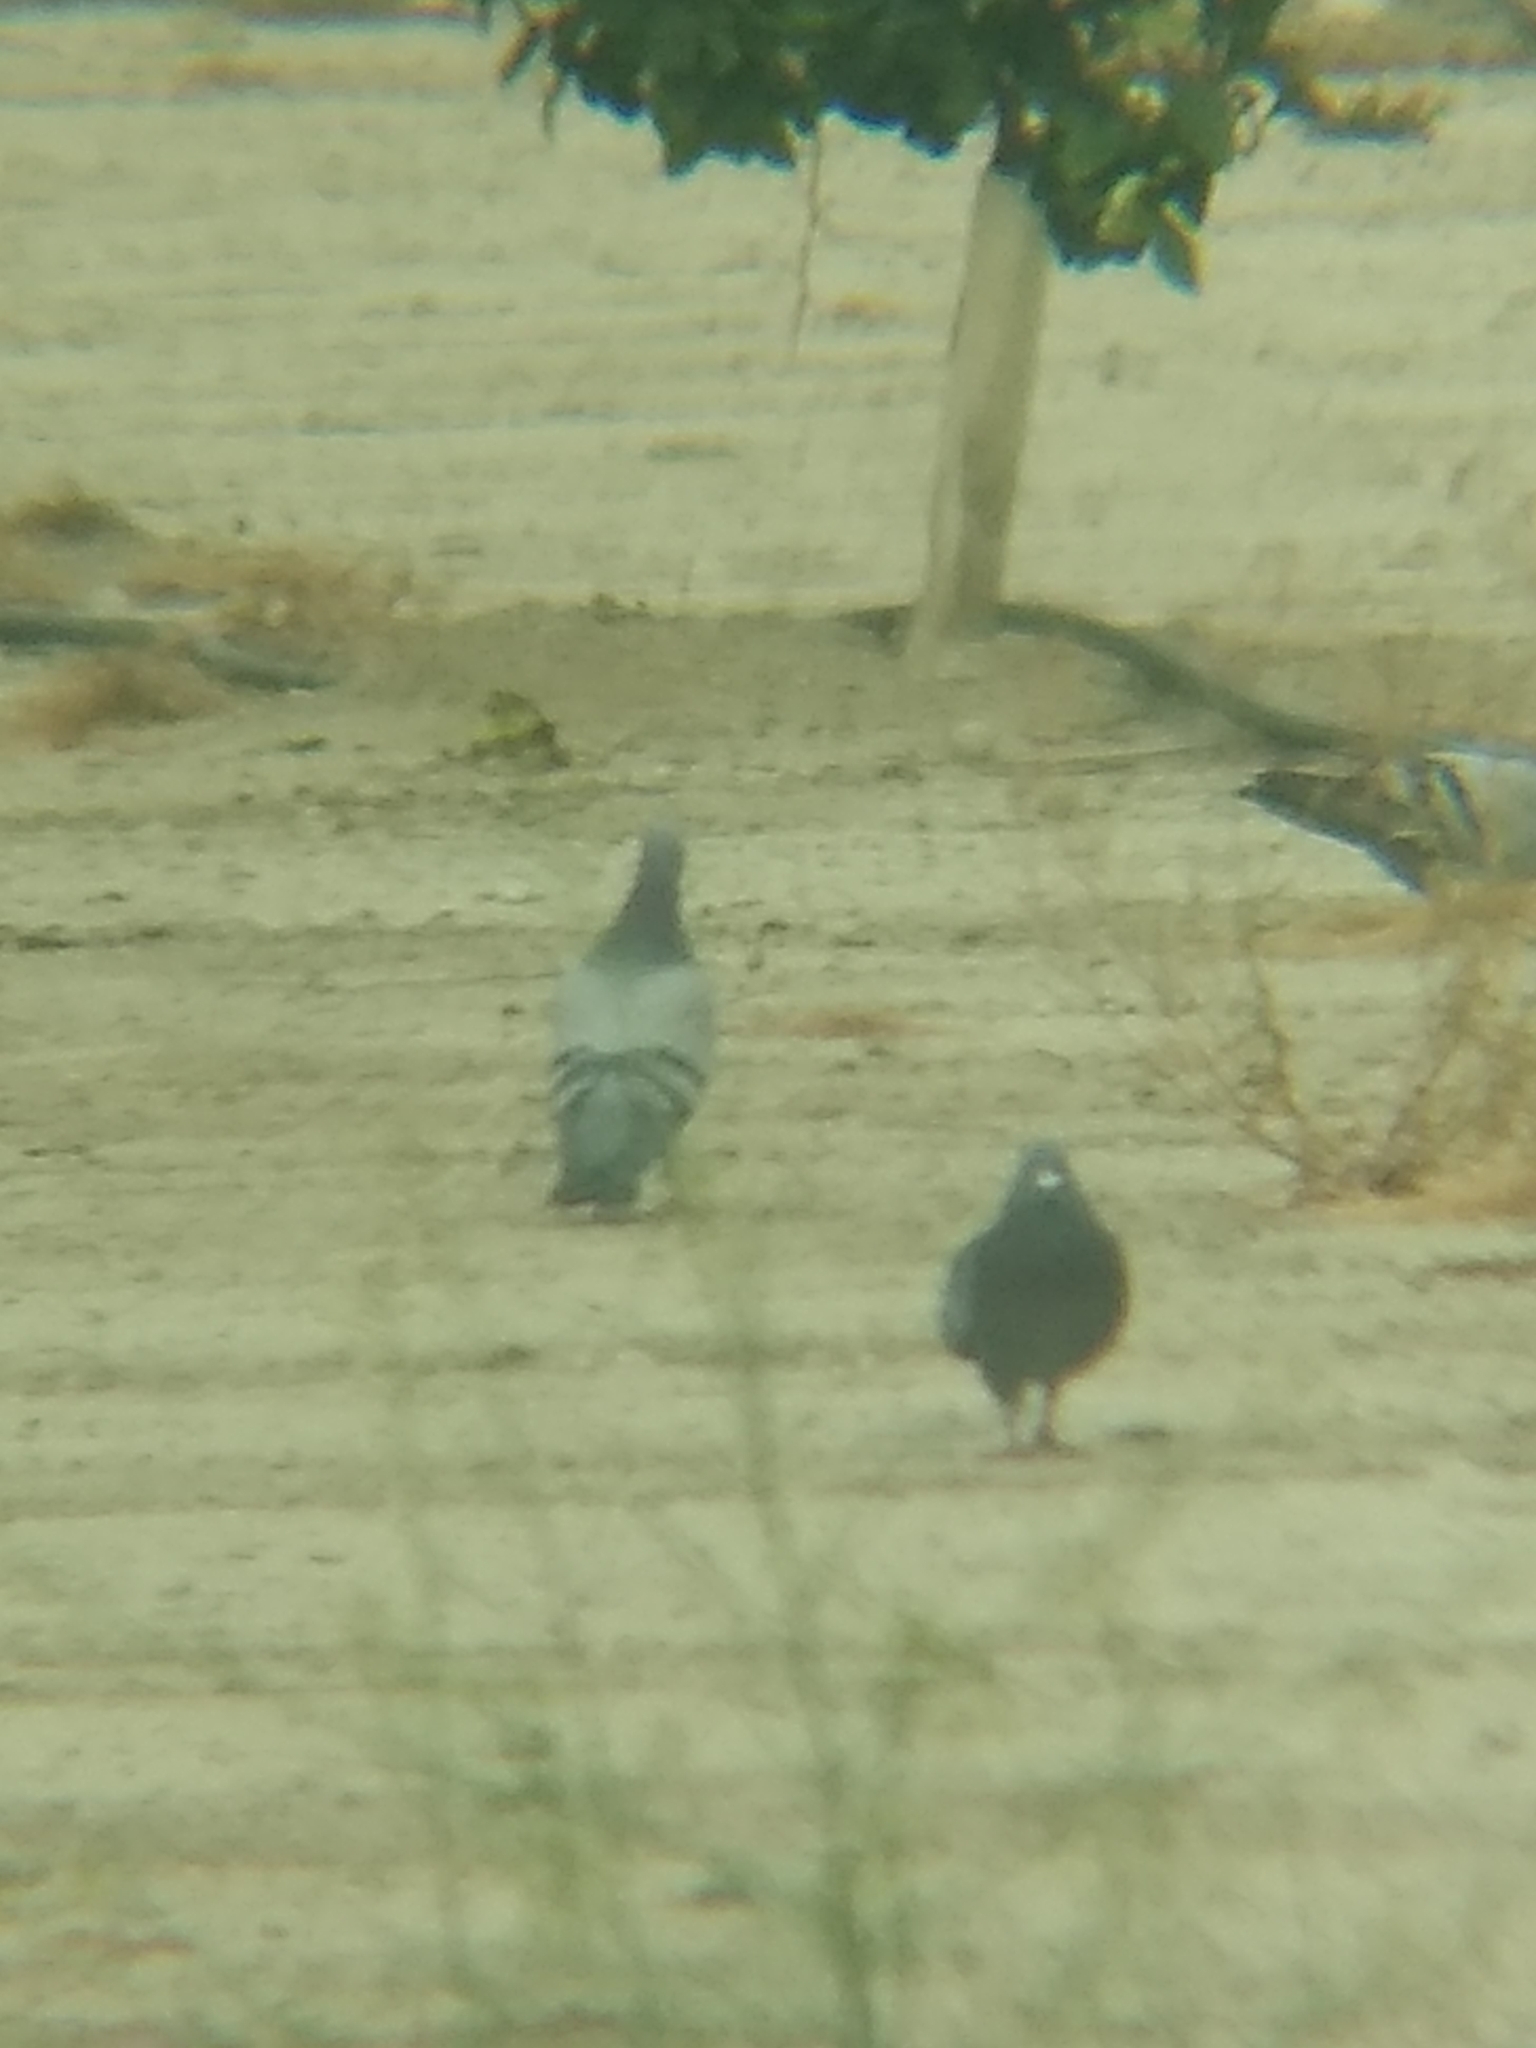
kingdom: Animalia
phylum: Chordata
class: Aves
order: Columbiformes
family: Columbidae
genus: Columba
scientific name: Columba livia
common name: Rock pigeon
